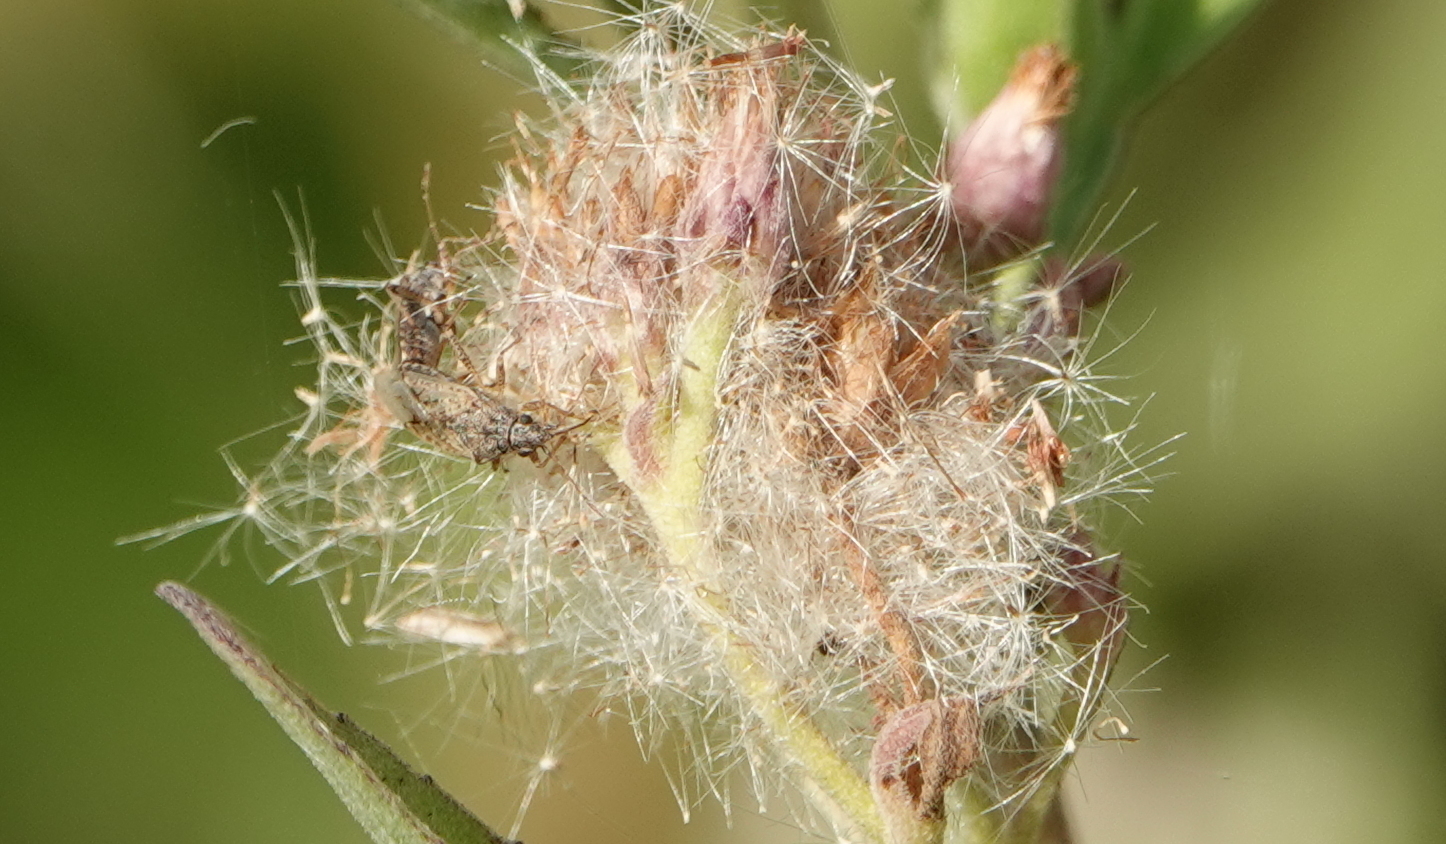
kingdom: Animalia
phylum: Arthropoda
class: Insecta
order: Hemiptera
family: Lygaeidae
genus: Neortholomus
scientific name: Neortholomus koreshanus
